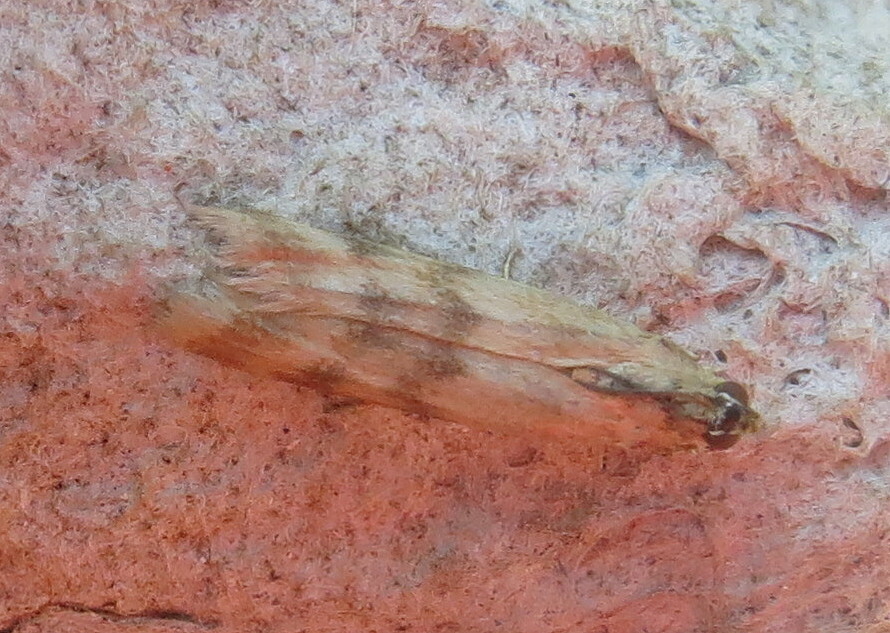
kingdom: Animalia
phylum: Arthropoda
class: Insecta
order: Lepidoptera
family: Pyralidae
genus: Homoeosoma
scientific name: Homoeosoma sinuella
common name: Twin-barred knot-horn
